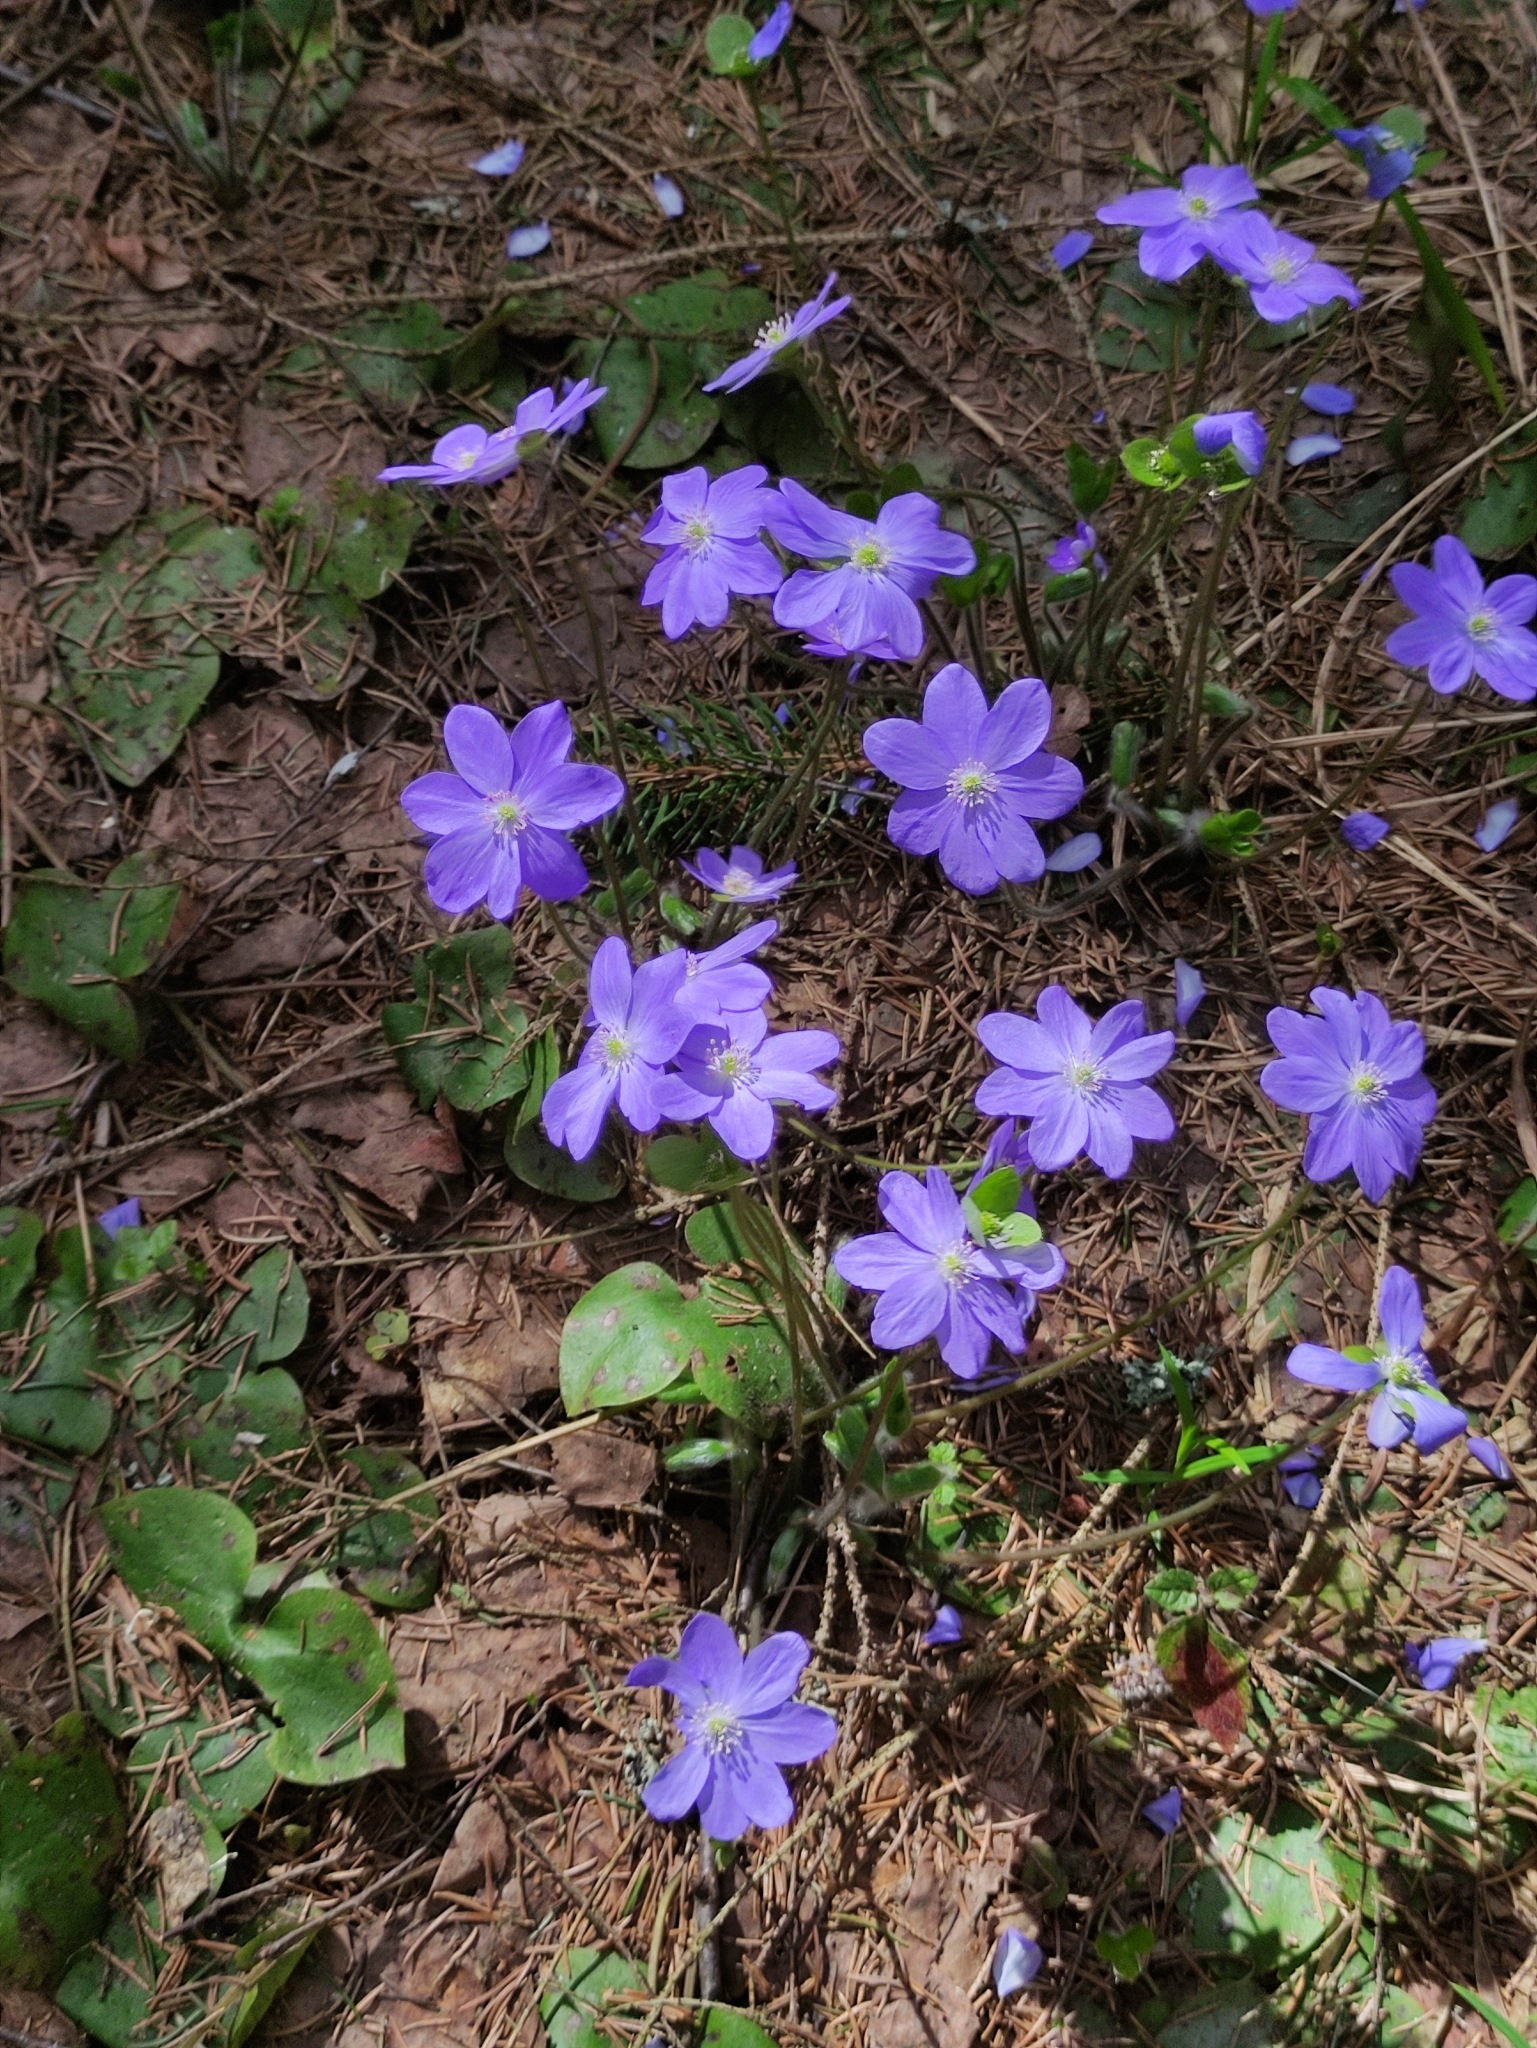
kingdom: Plantae
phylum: Tracheophyta
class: Magnoliopsida
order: Ranunculales
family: Ranunculaceae
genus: Hepatica
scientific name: Hepatica nobilis
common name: Liverleaf
